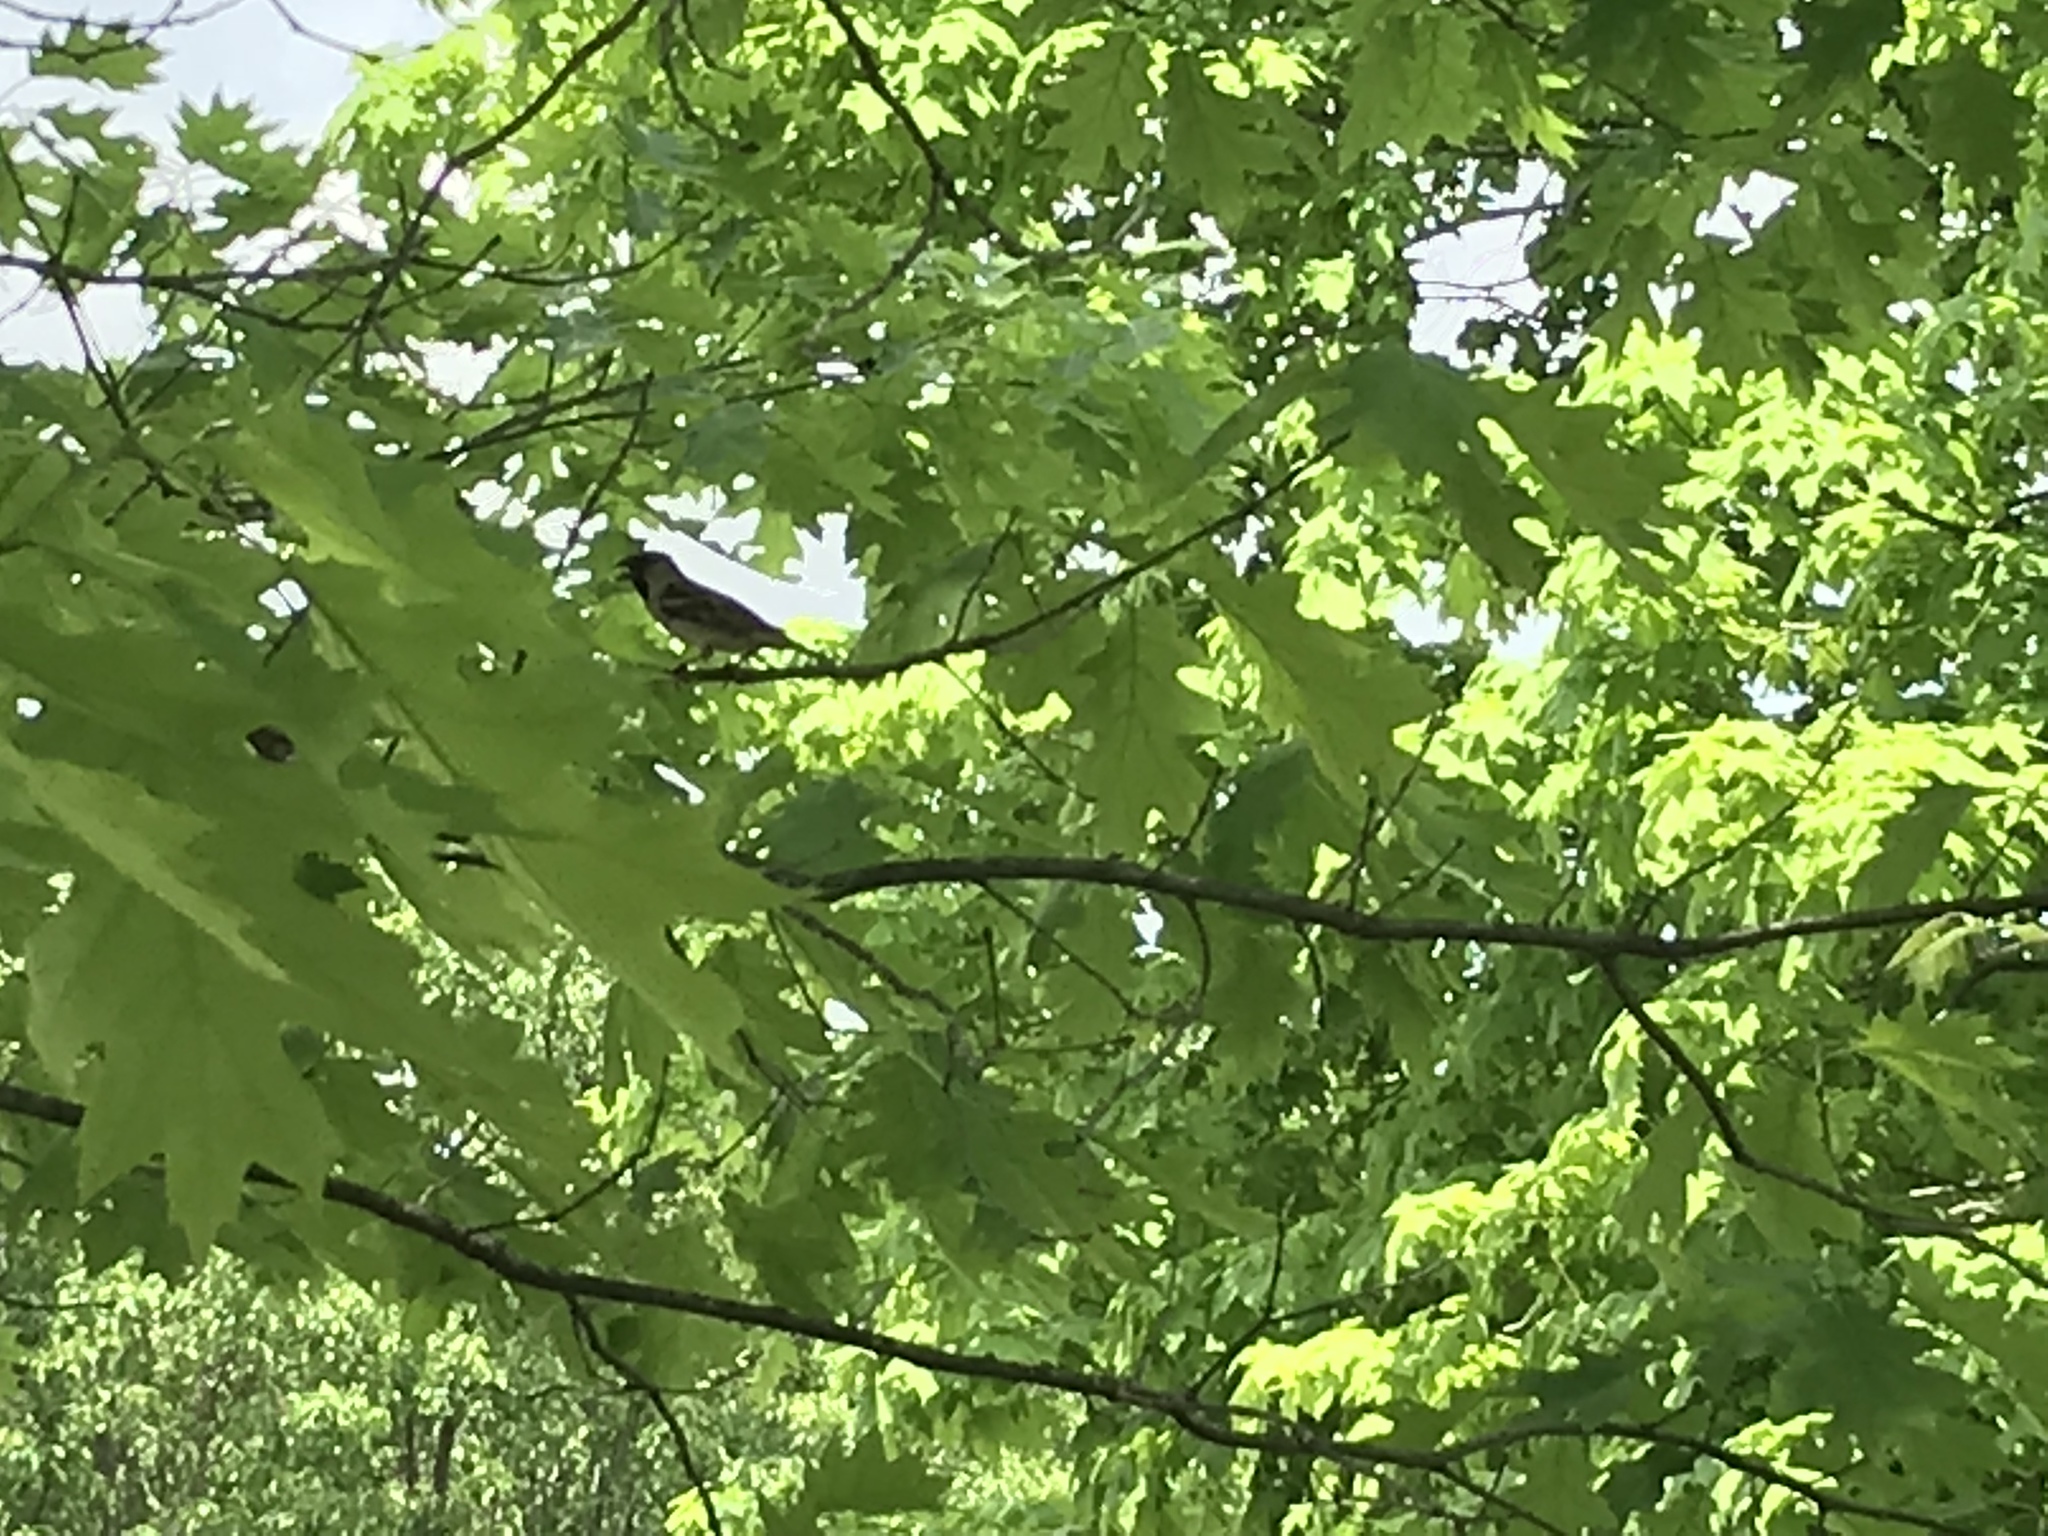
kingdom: Animalia
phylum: Chordata
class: Aves
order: Passeriformes
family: Passeridae
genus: Passer
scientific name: Passer domesticus
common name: House sparrow
